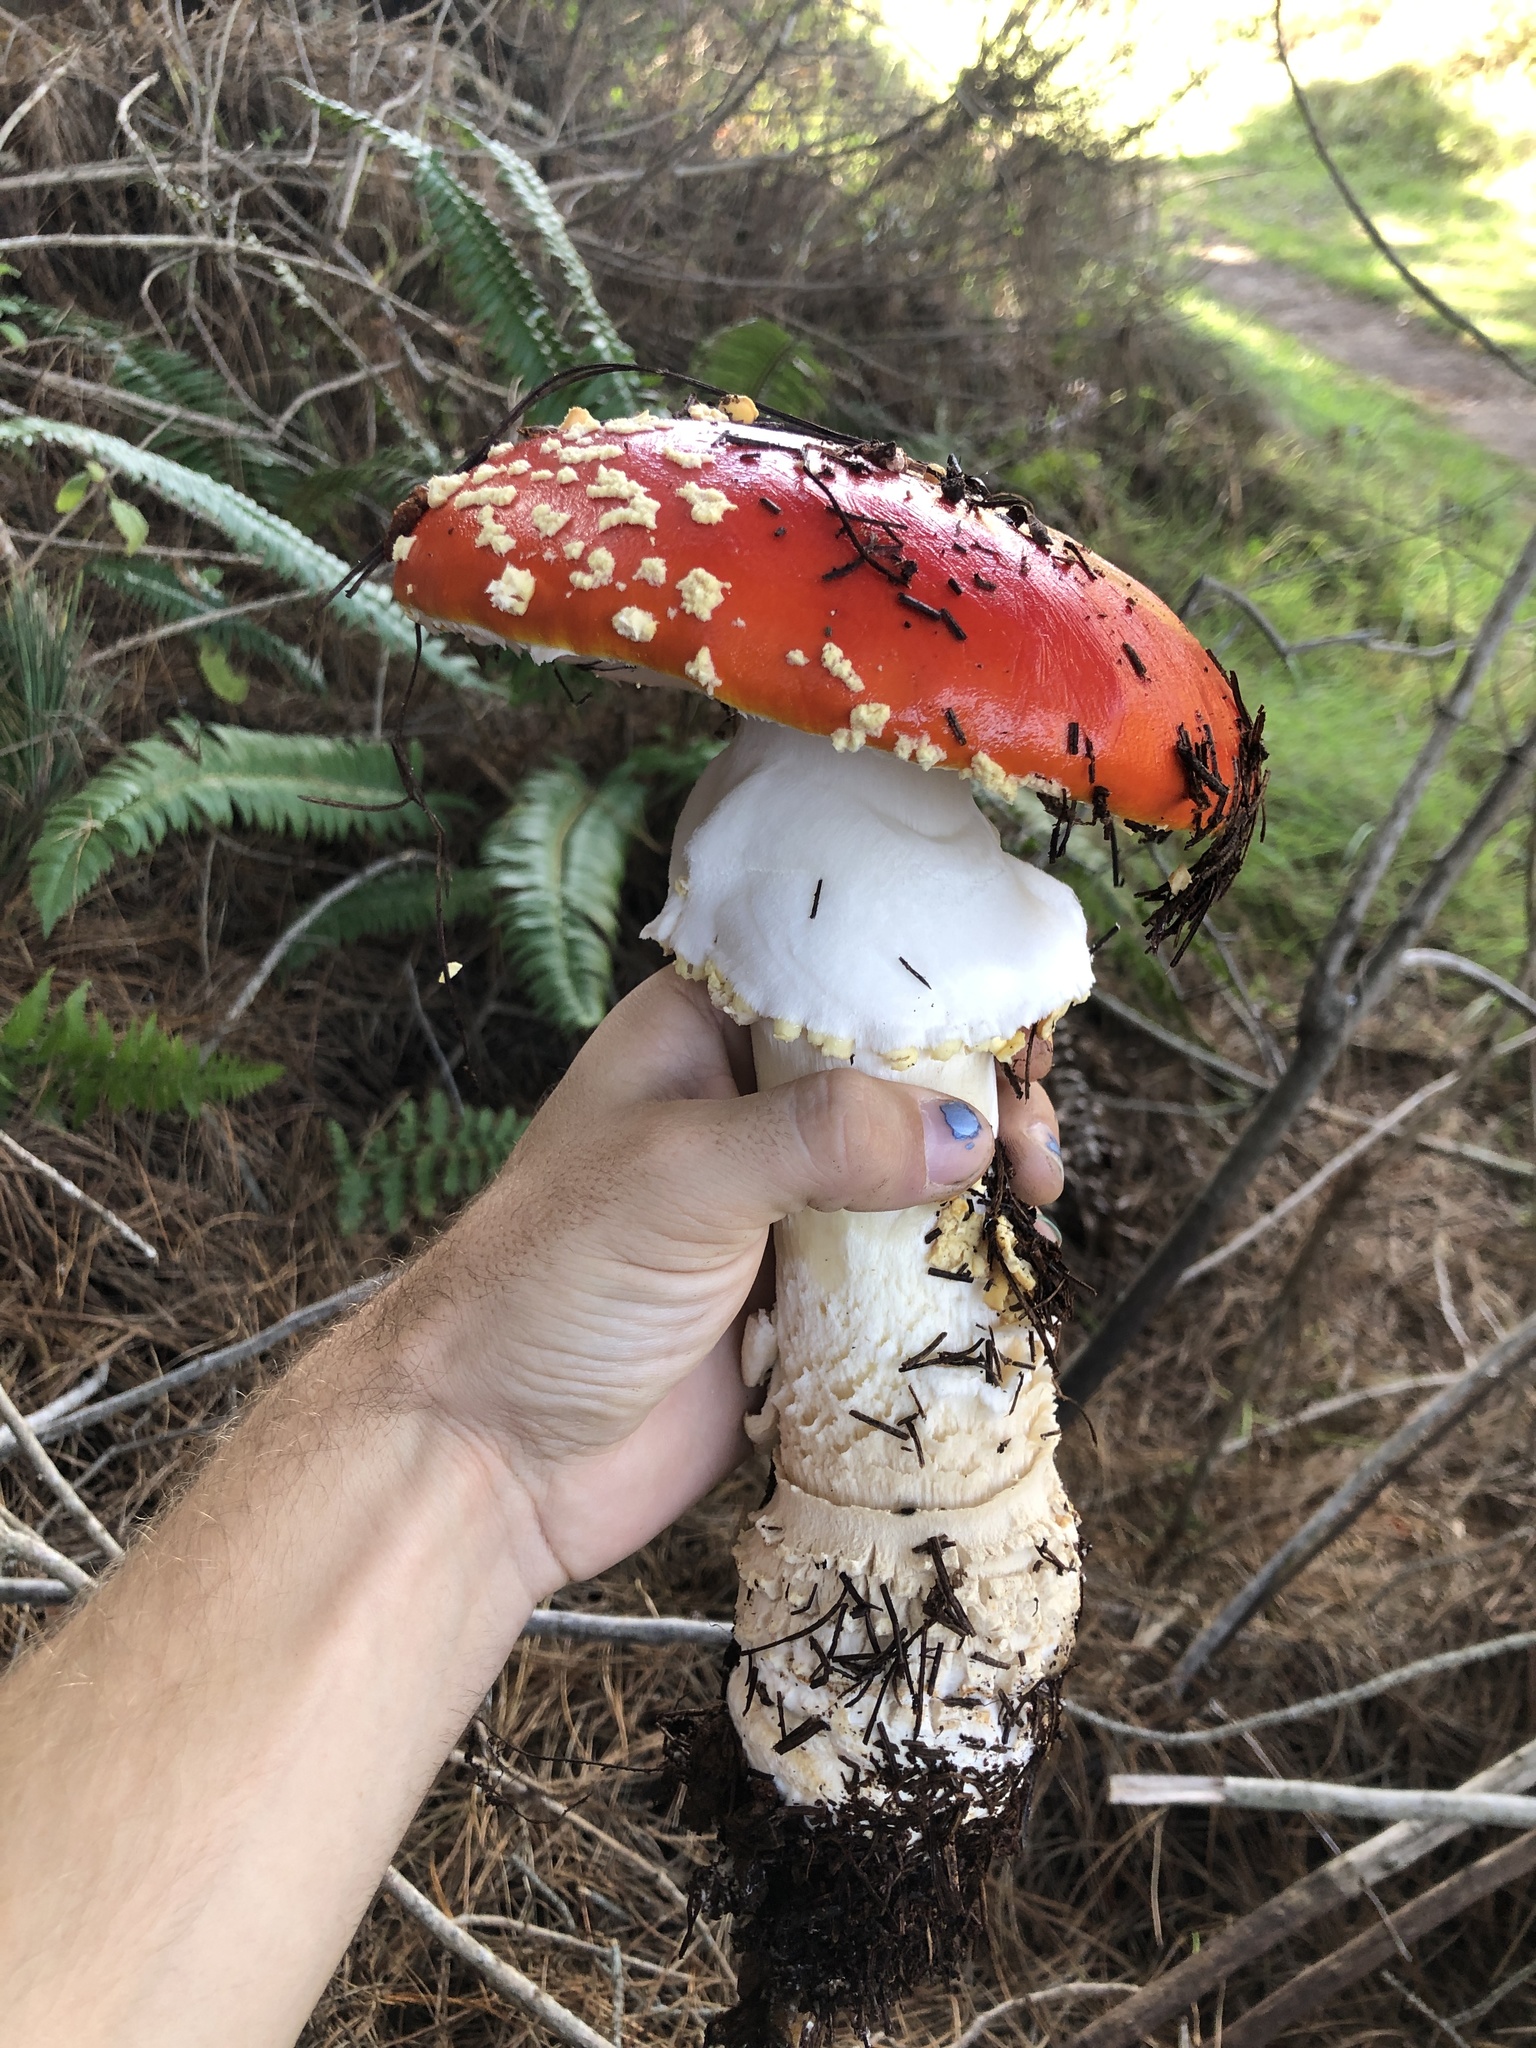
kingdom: Fungi
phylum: Basidiomycota
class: Agaricomycetes
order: Agaricales
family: Amanitaceae
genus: Amanita
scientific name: Amanita muscaria
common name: Fly agaric
